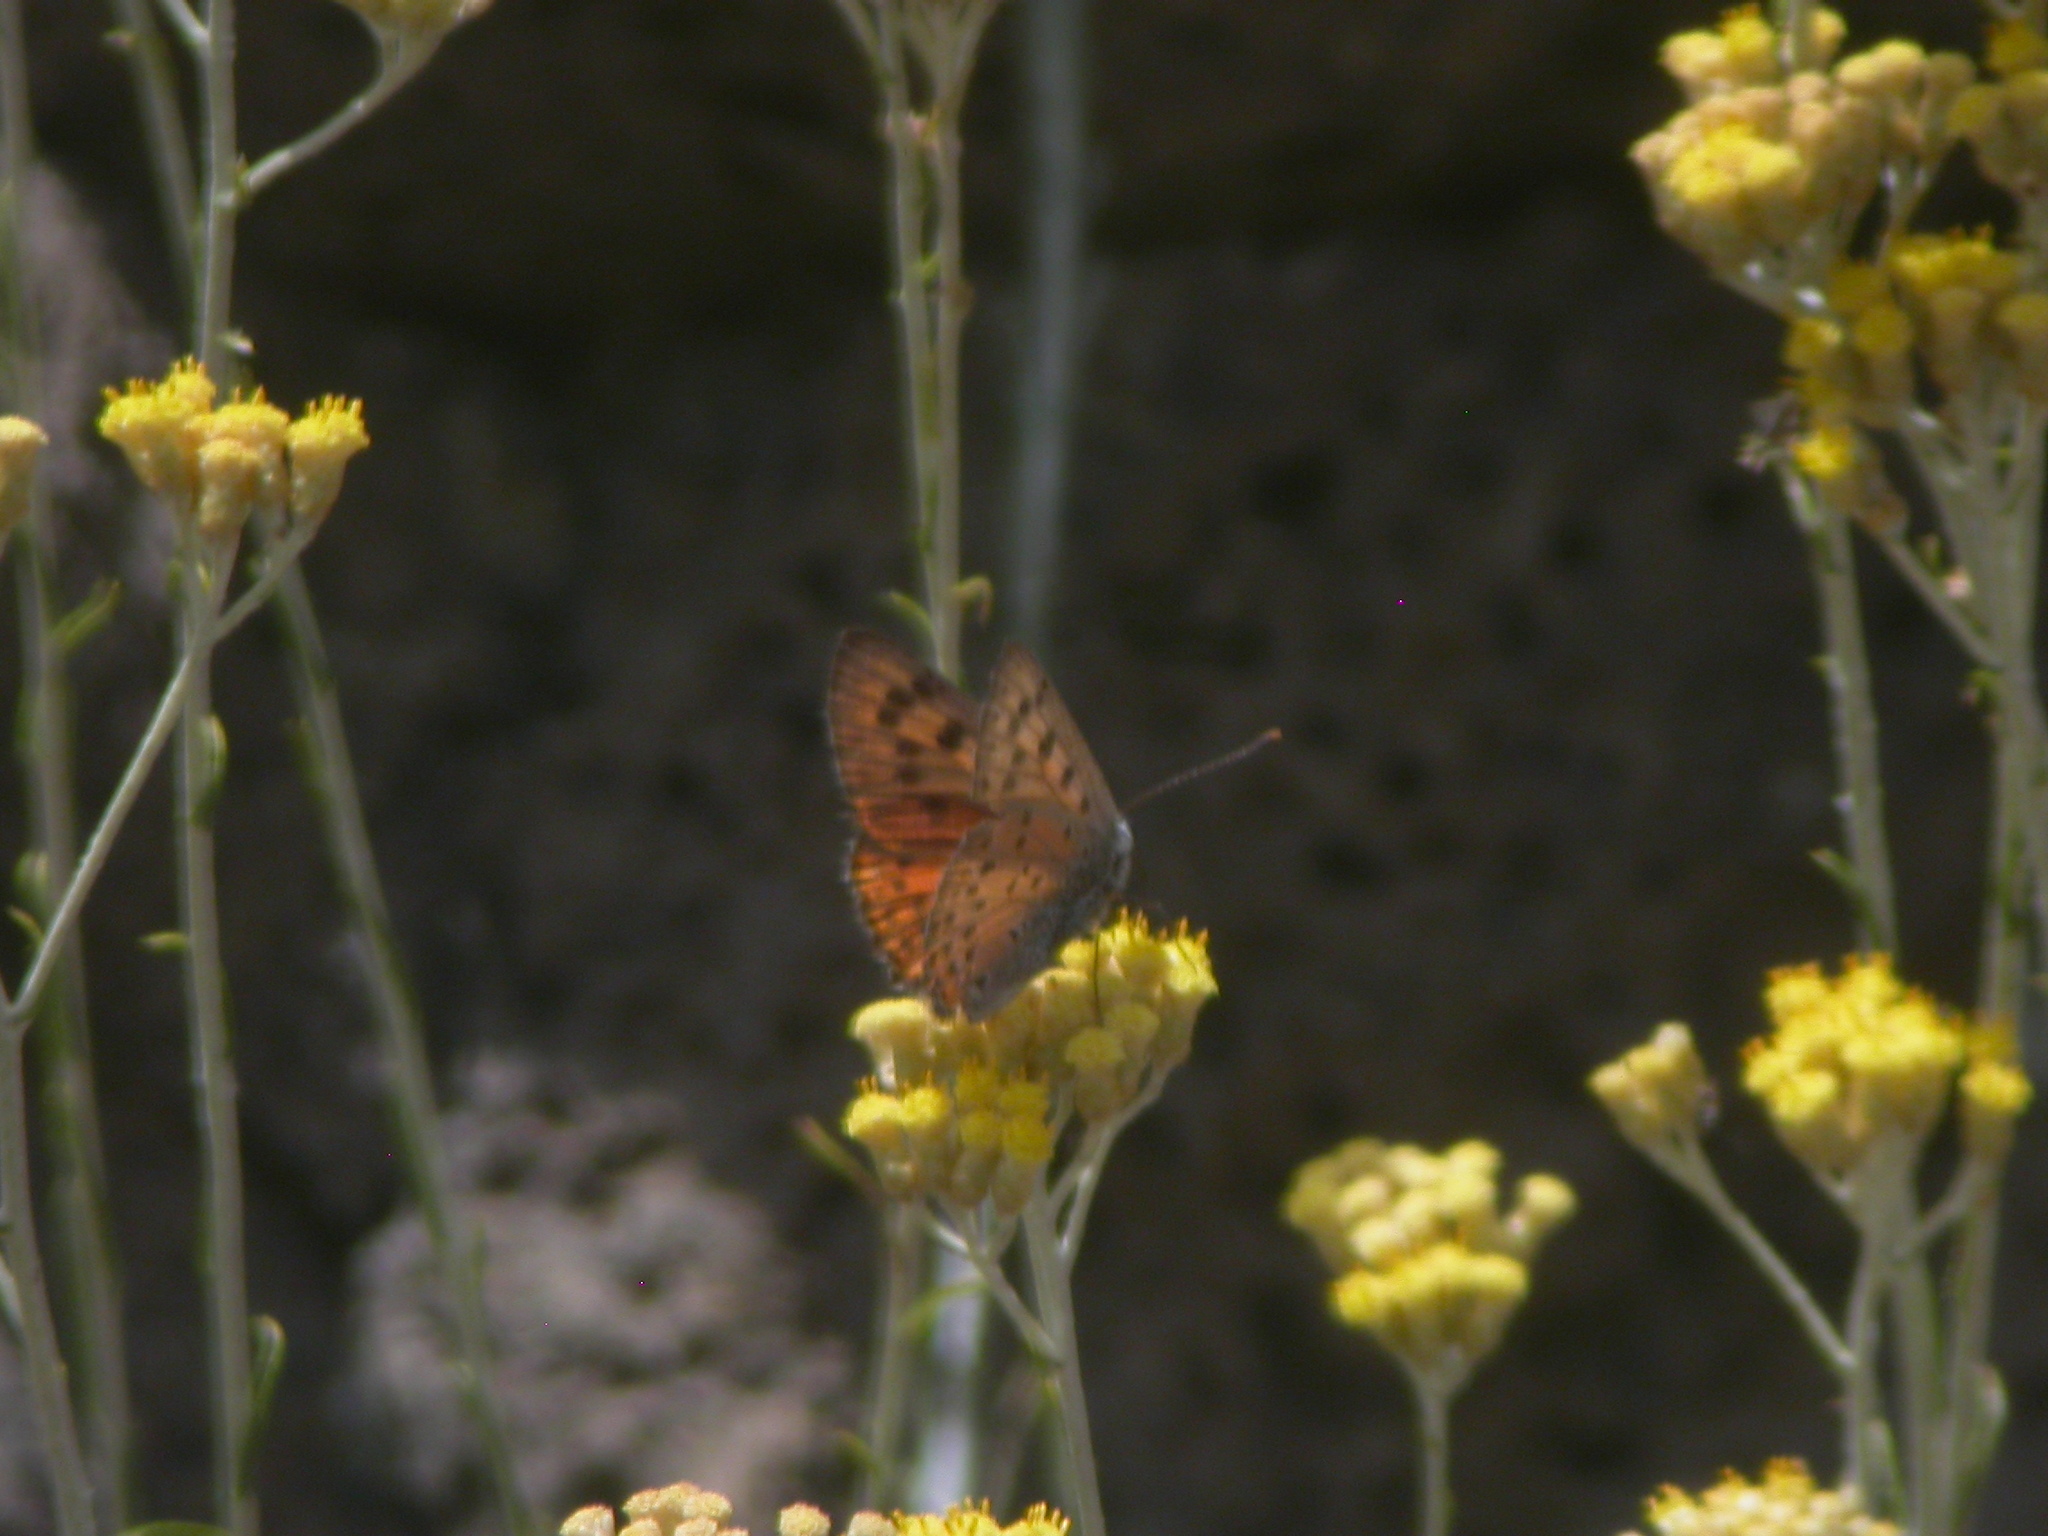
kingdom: Animalia
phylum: Arthropoda
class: Insecta
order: Lepidoptera
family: Lycaenidae
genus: Lycaena
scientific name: Lycaena alciphron
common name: Purple-shot copper
